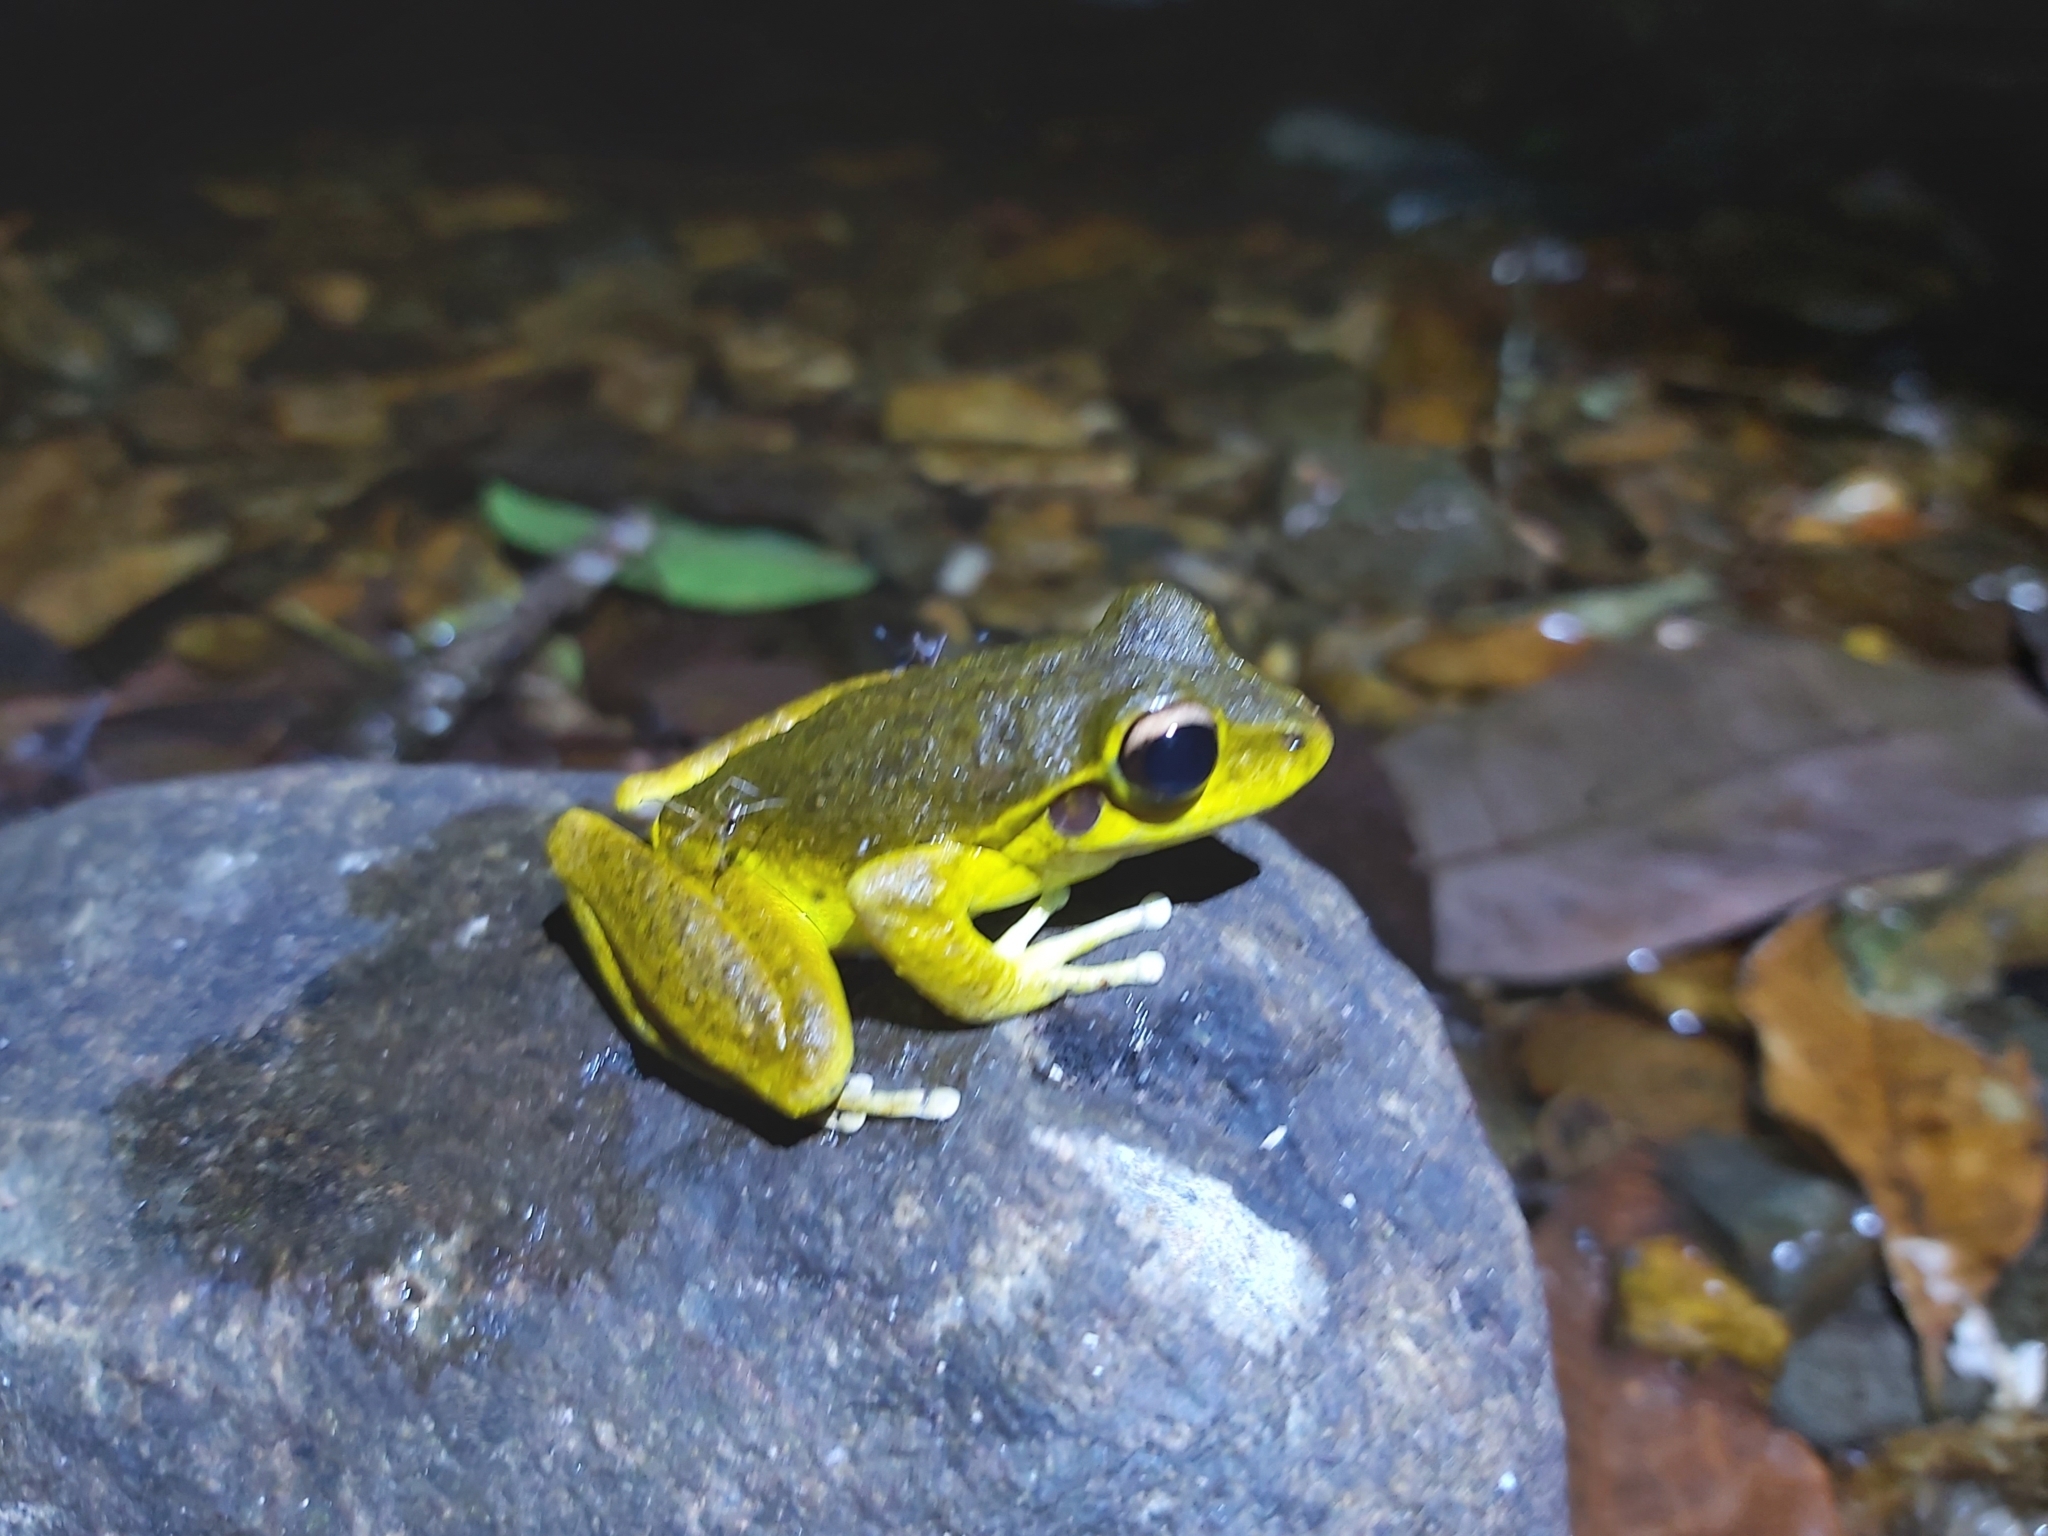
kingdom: Animalia
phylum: Chordata
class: Amphibia
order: Anura
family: Hylidae
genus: Ranoidea
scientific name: Ranoidea
